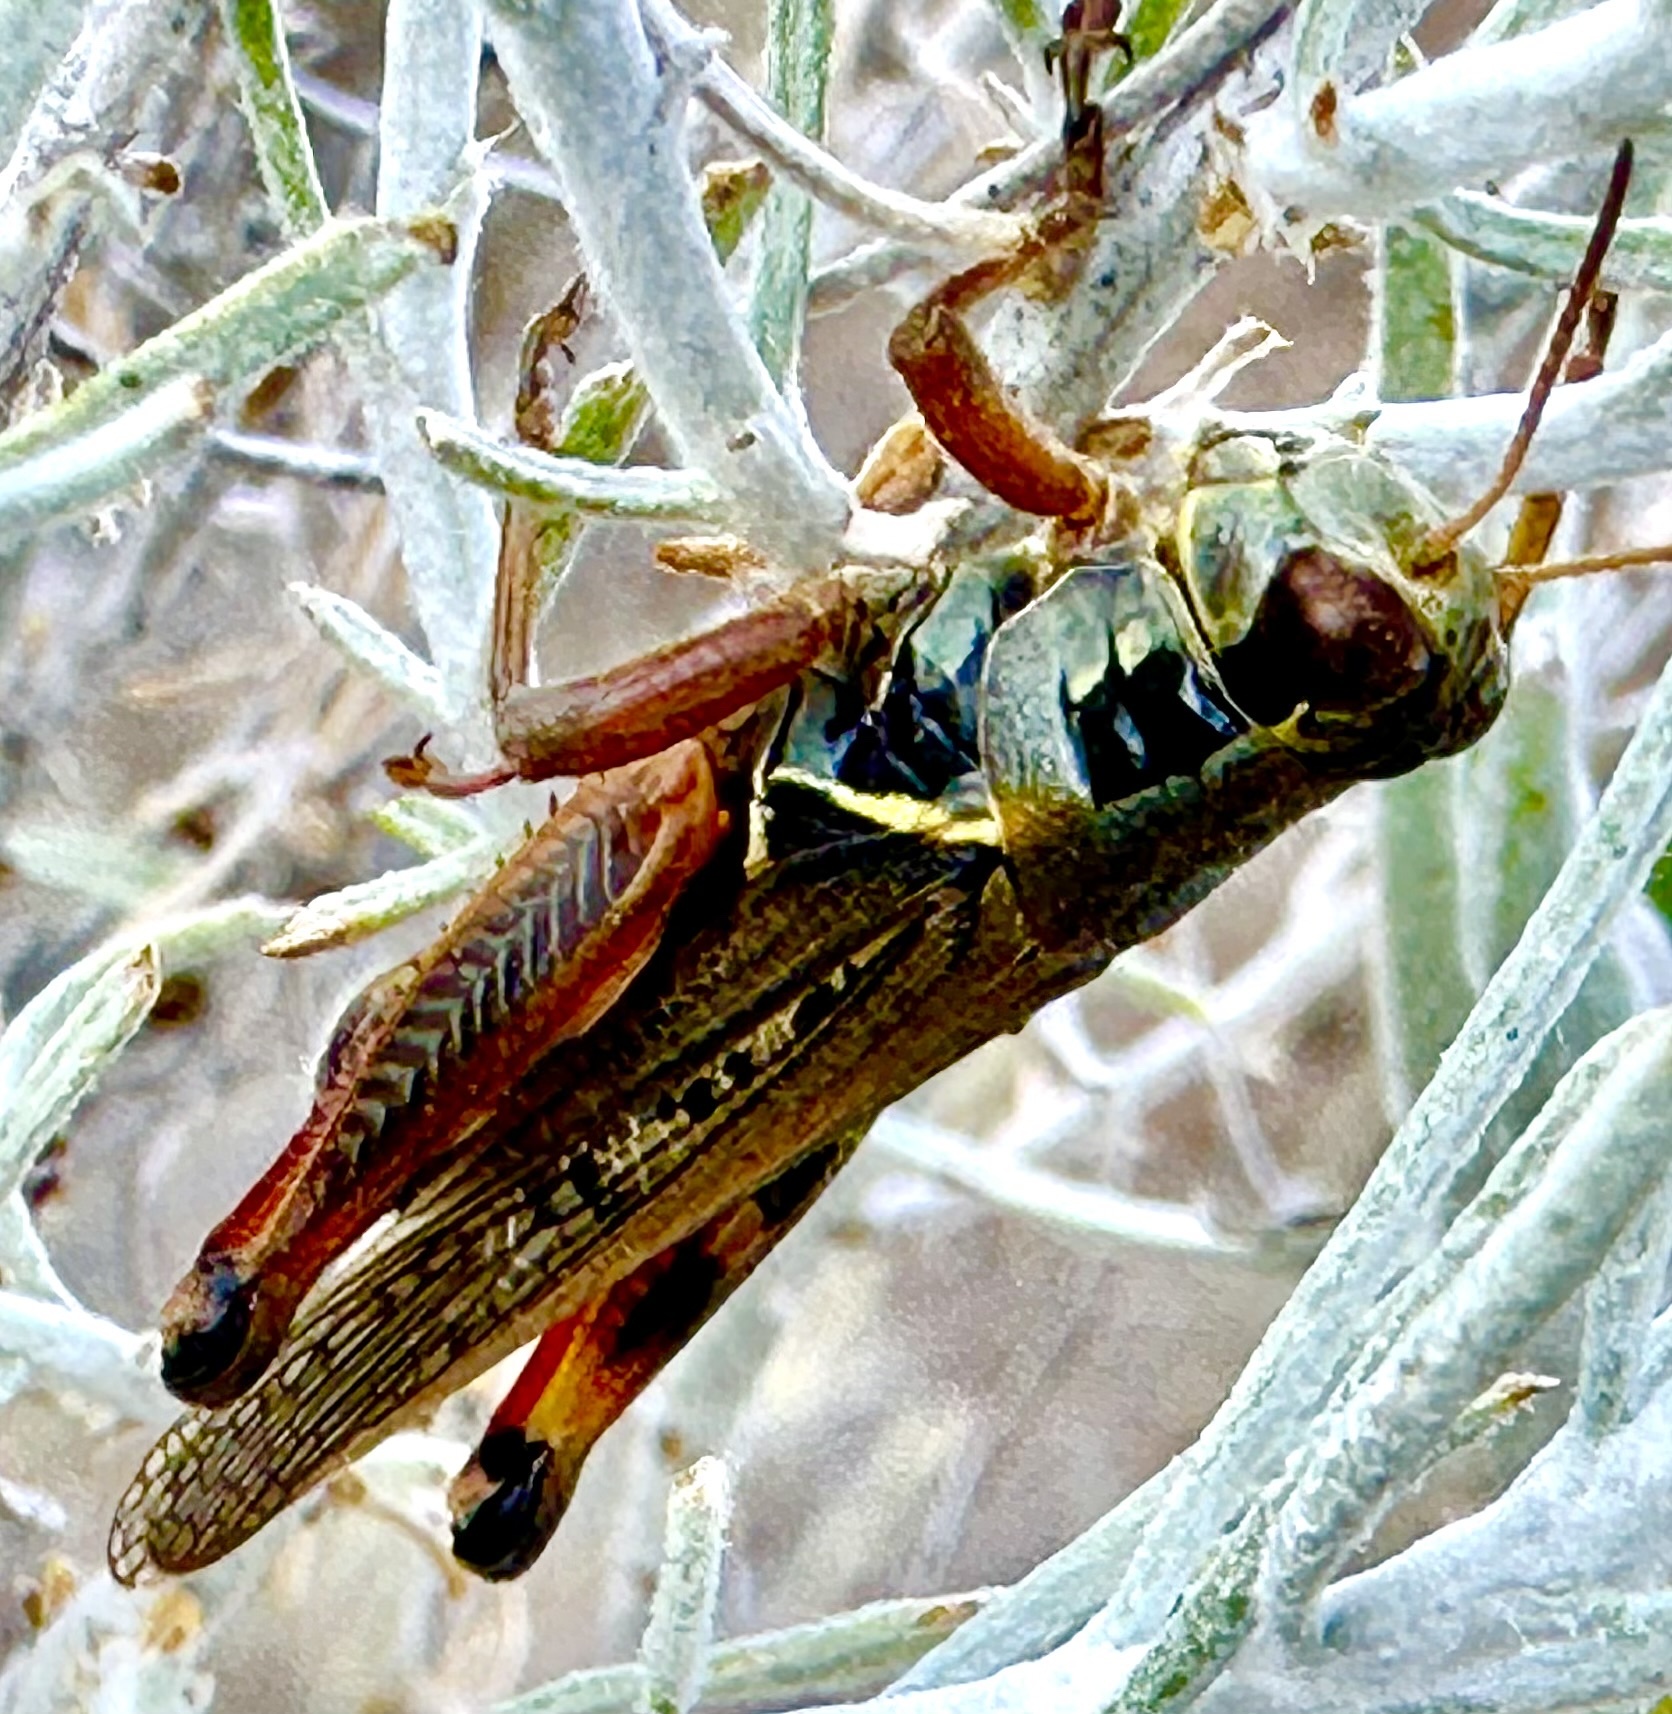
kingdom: Animalia
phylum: Arthropoda
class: Insecta
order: Orthoptera
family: Acrididae
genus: Melanoplus
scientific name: Melanoplus femurrubrum
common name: Red-legged grasshopper
